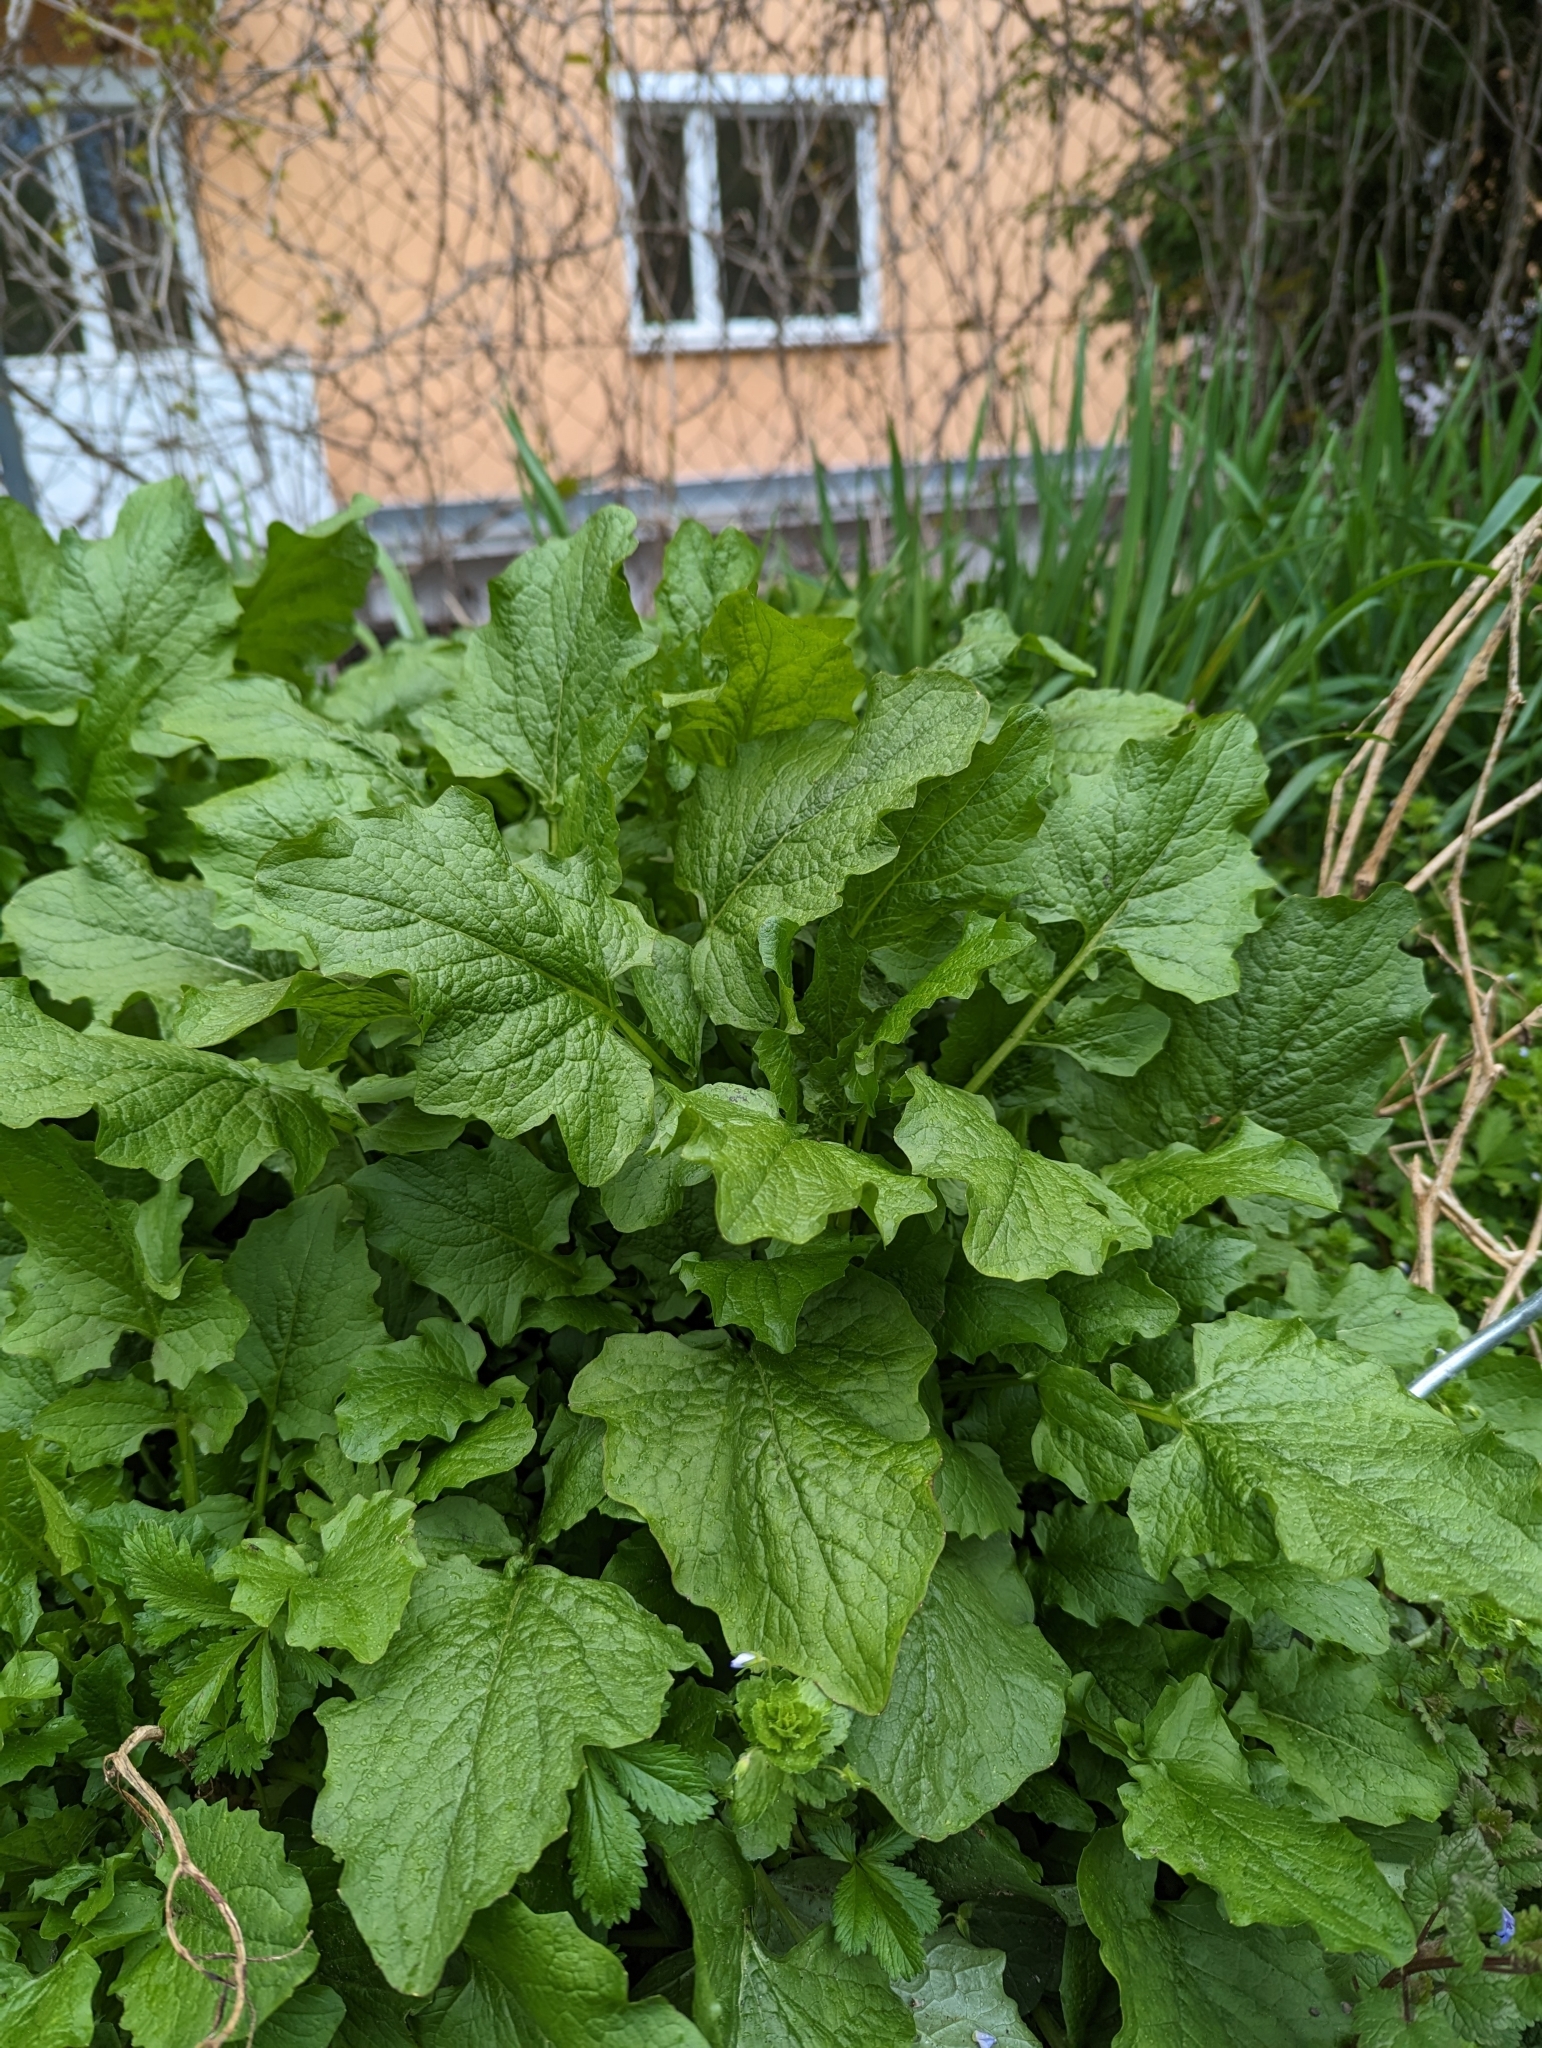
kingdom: Plantae
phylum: Tracheophyta
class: Magnoliopsida
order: Asterales
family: Asteraceae
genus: Lapsana
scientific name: Lapsana communis
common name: Nipplewort
